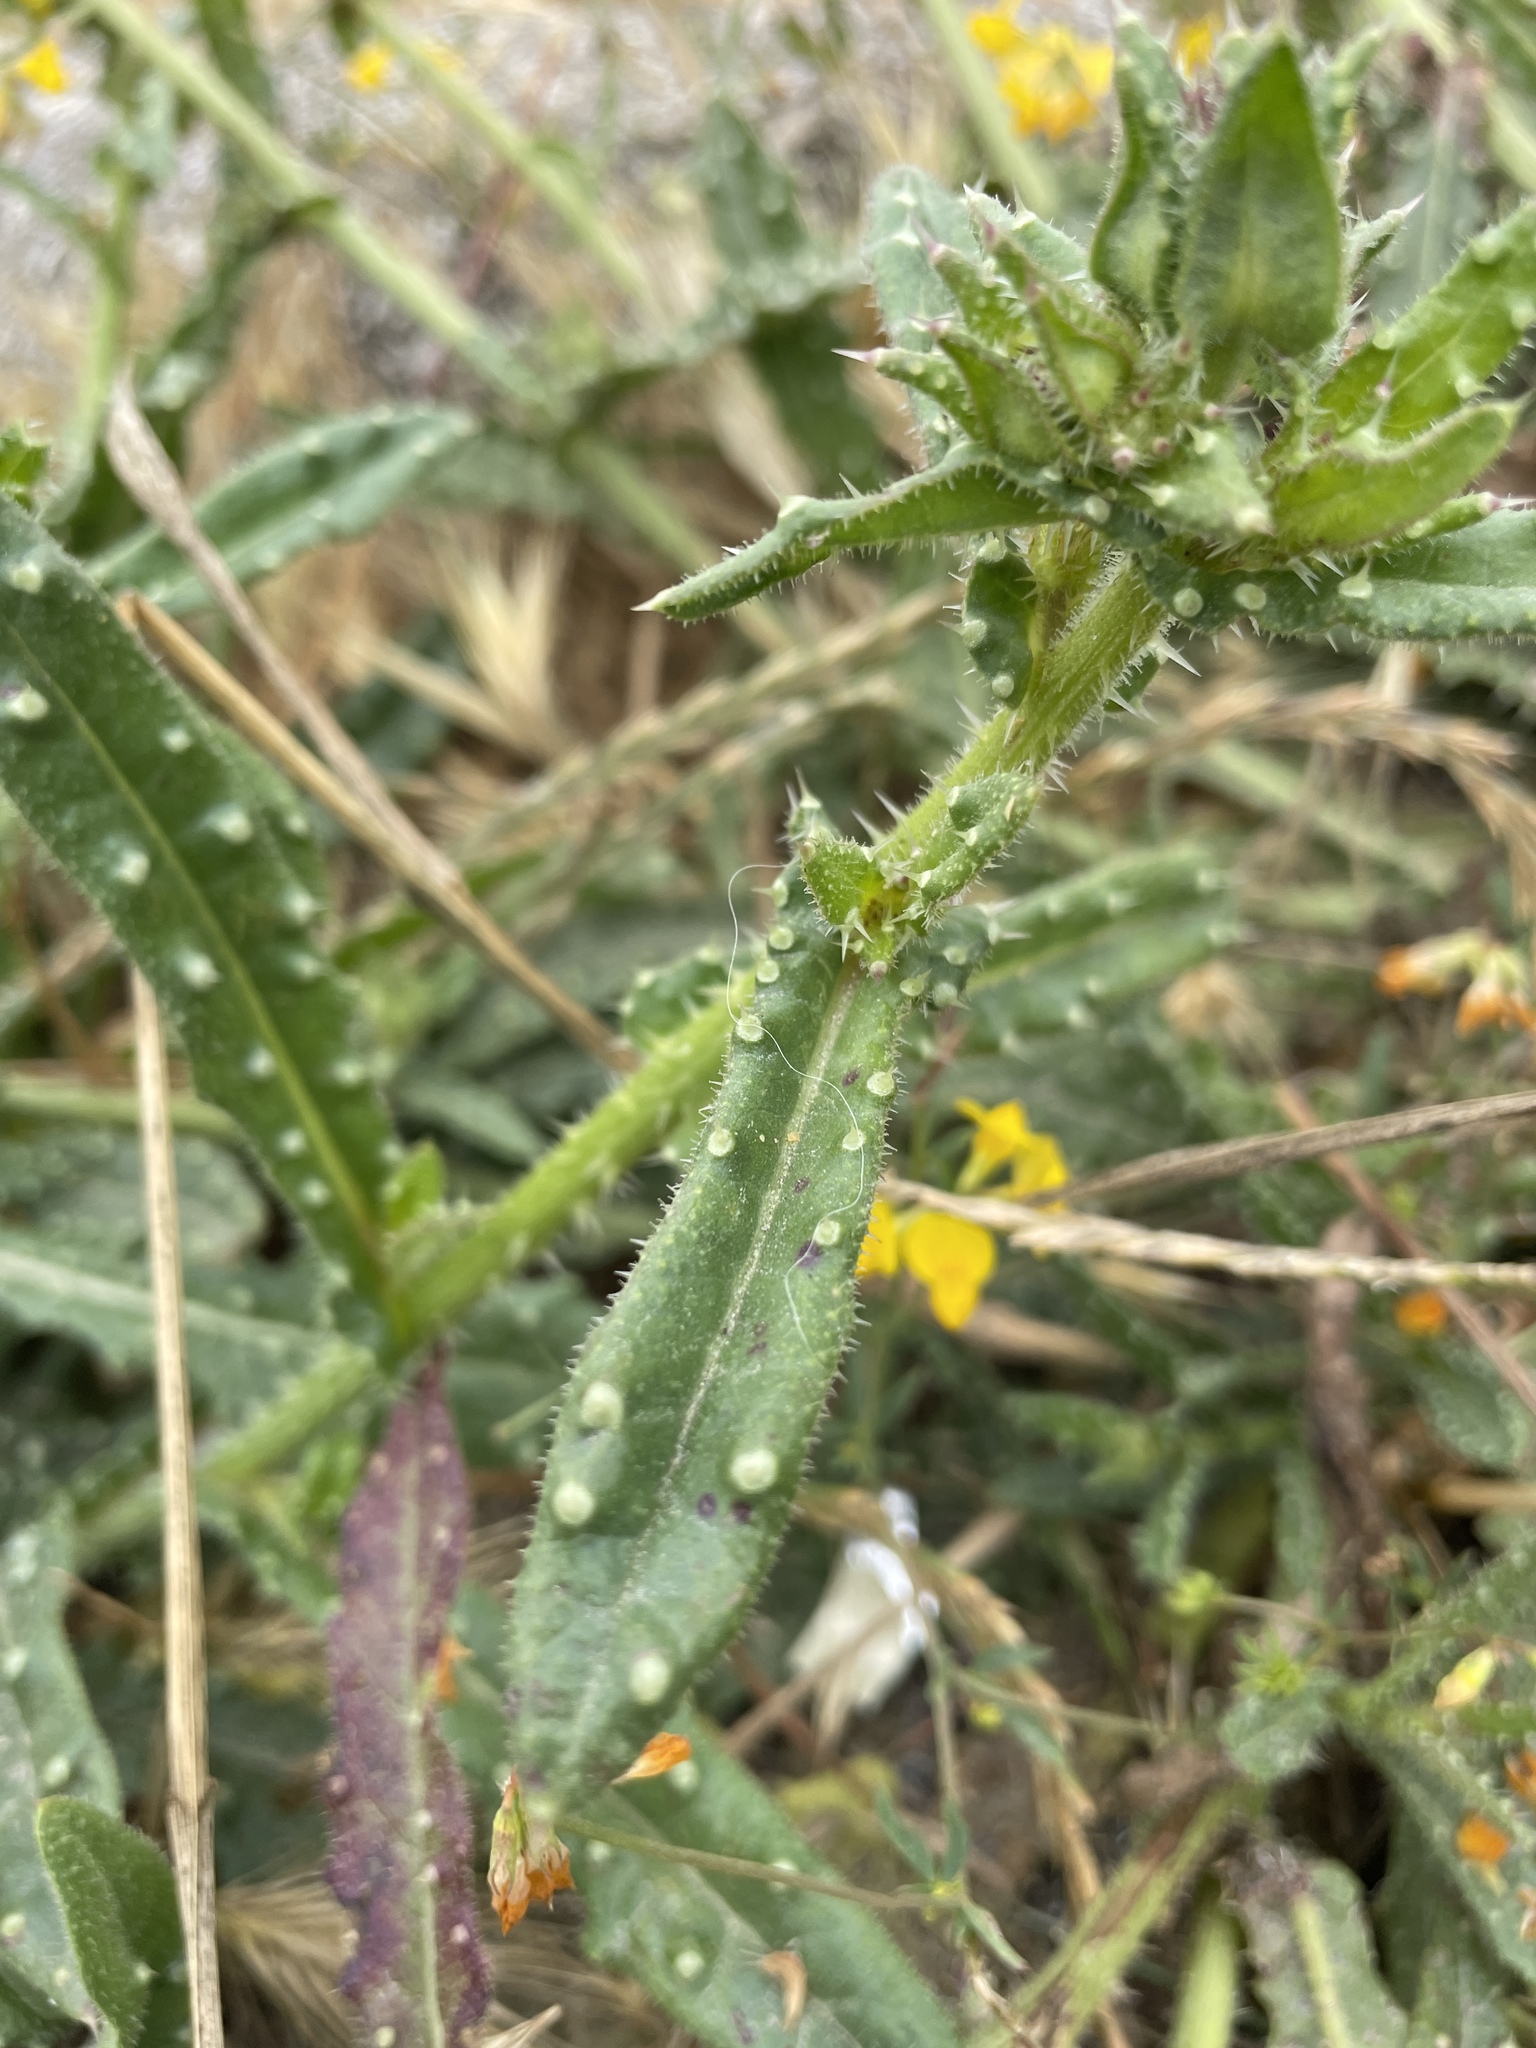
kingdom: Plantae
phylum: Tracheophyta
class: Magnoliopsida
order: Asterales
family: Asteraceae
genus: Helminthotheca
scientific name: Helminthotheca echioides
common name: Ox-tongue
